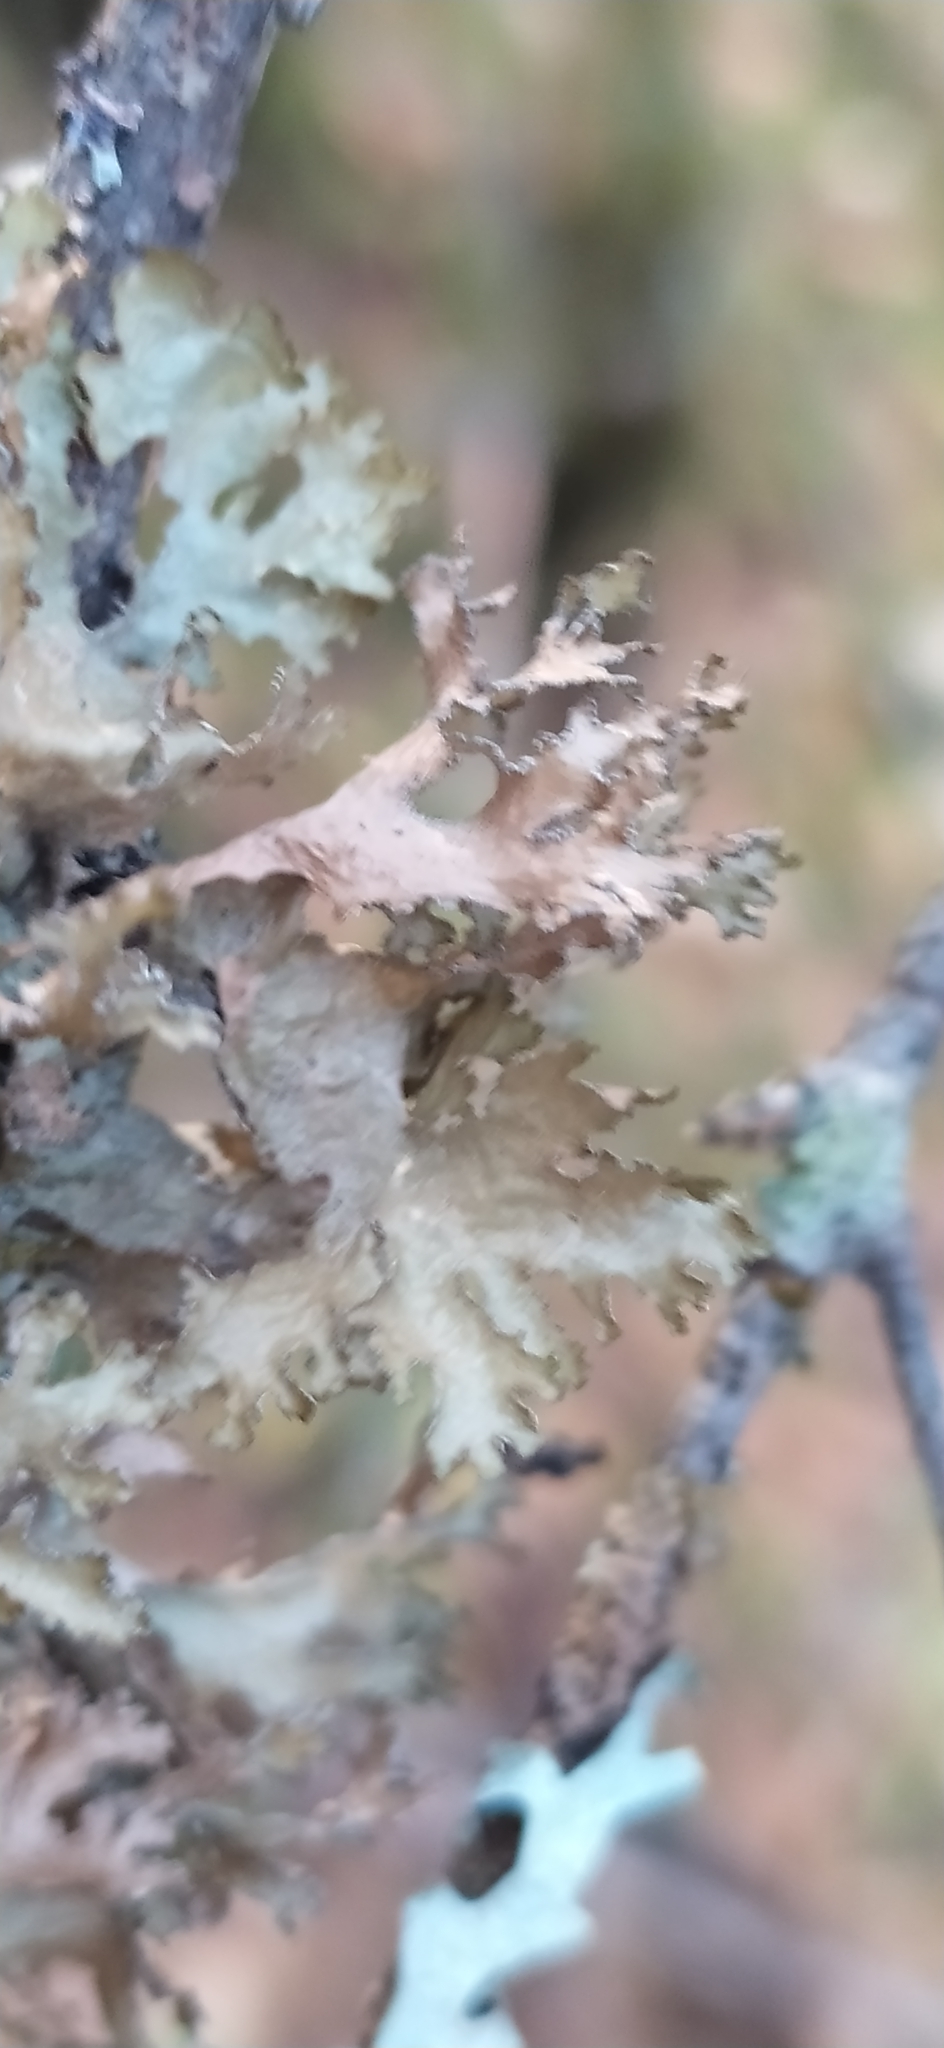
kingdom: Fungi
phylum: Ascomycota
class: Lecanoromycetes
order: Lecanorales
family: Parmeliaceae
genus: Nephromopsis
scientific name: Nephromopsis chlorophylla
